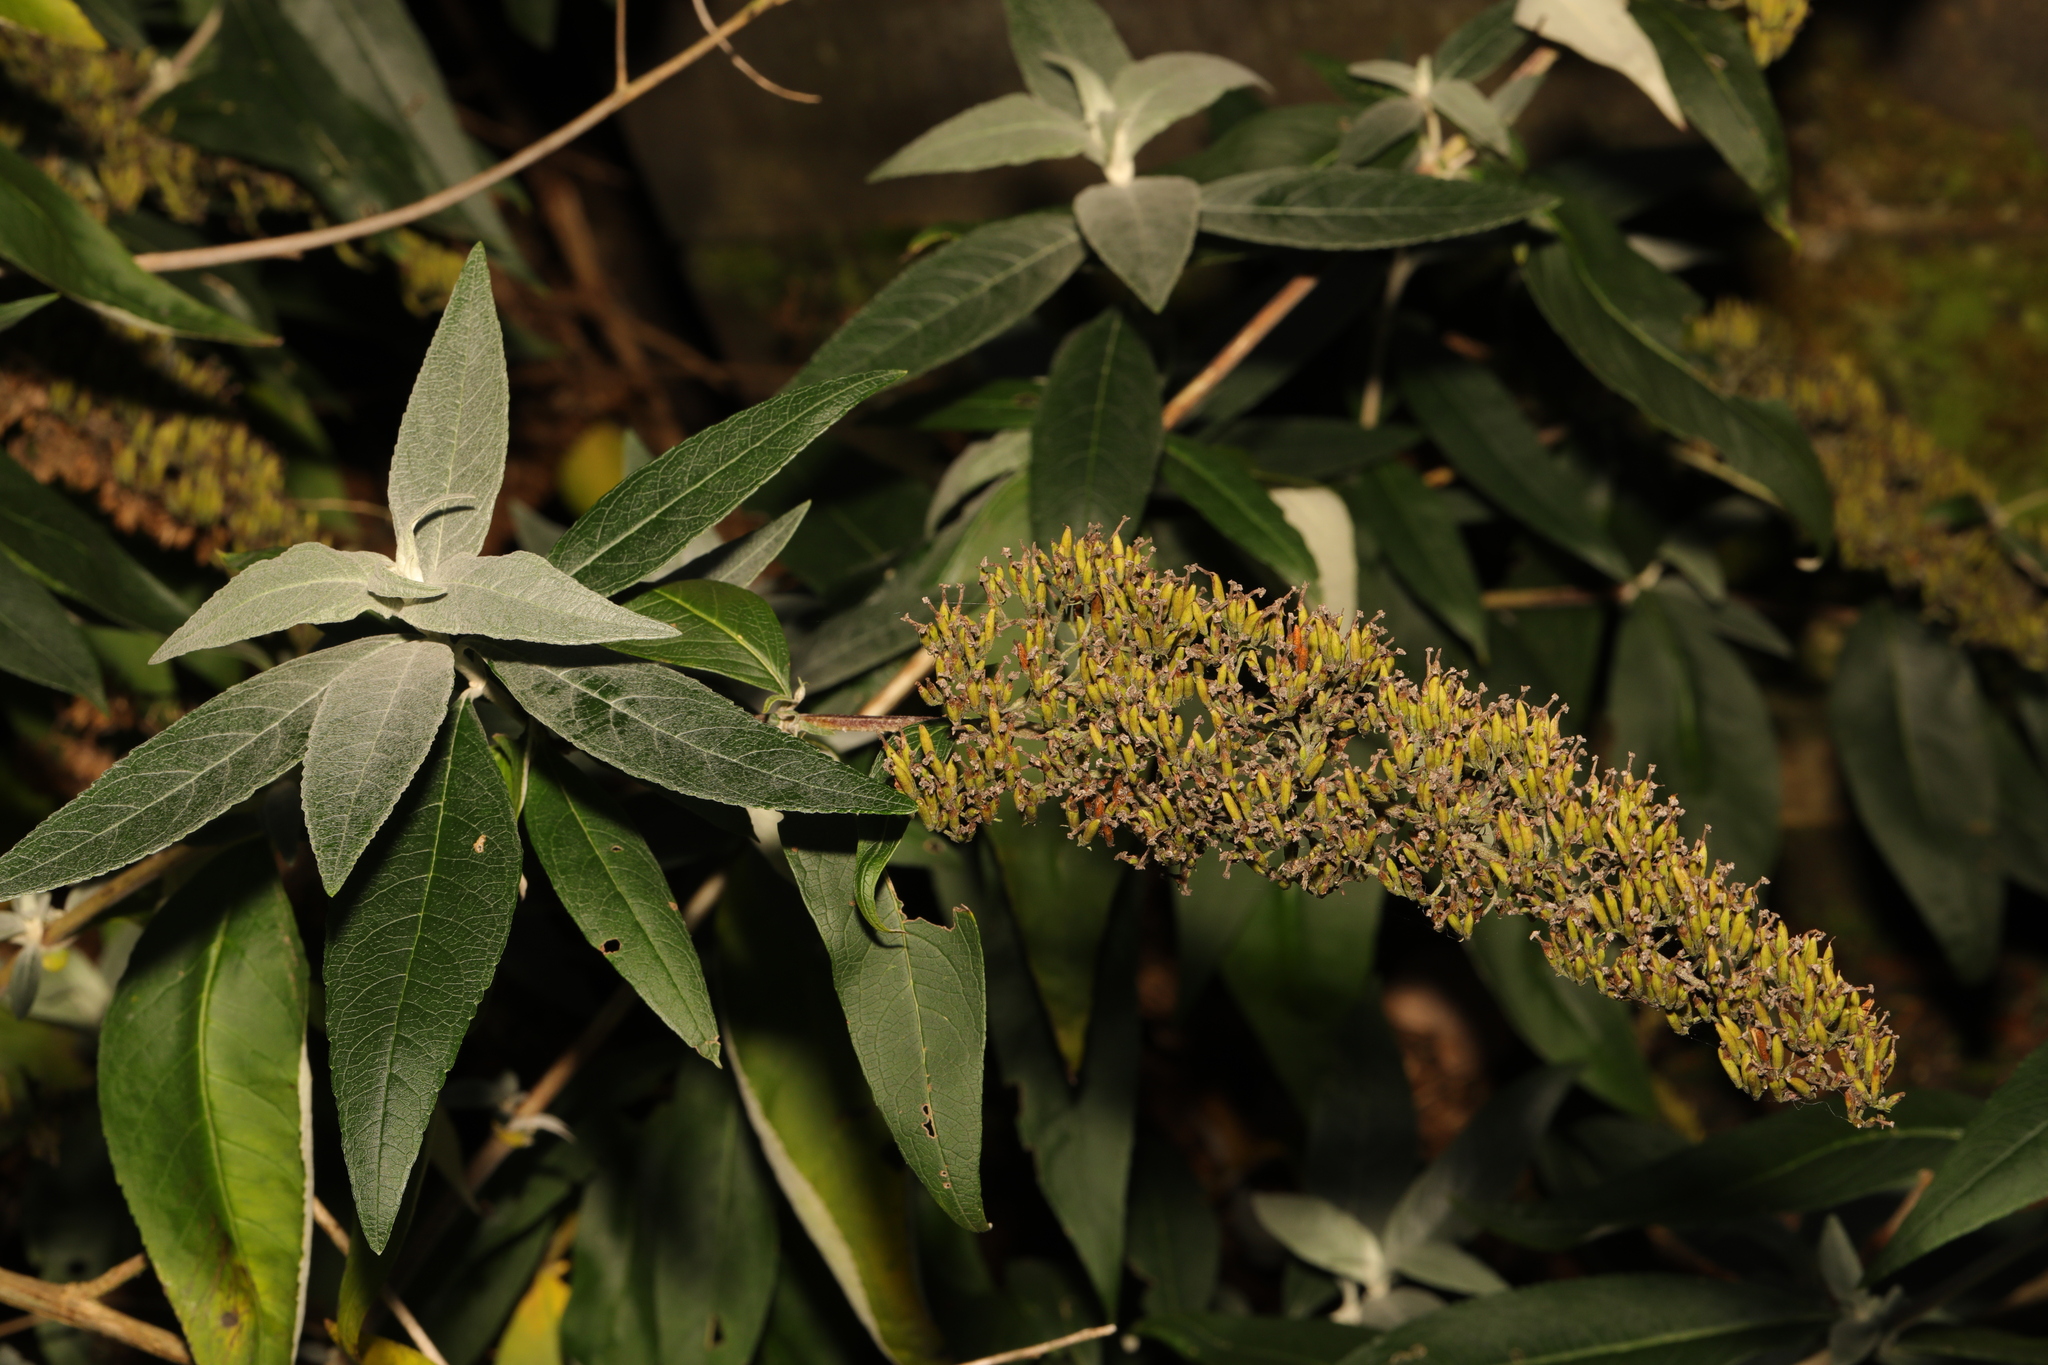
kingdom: Plantae
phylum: Tracheophyta
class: Magnoliopsida
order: Lamiales
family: Scrophulariaceae
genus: Buddleja
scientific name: Buddleja davidii
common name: Butterfly-bush
